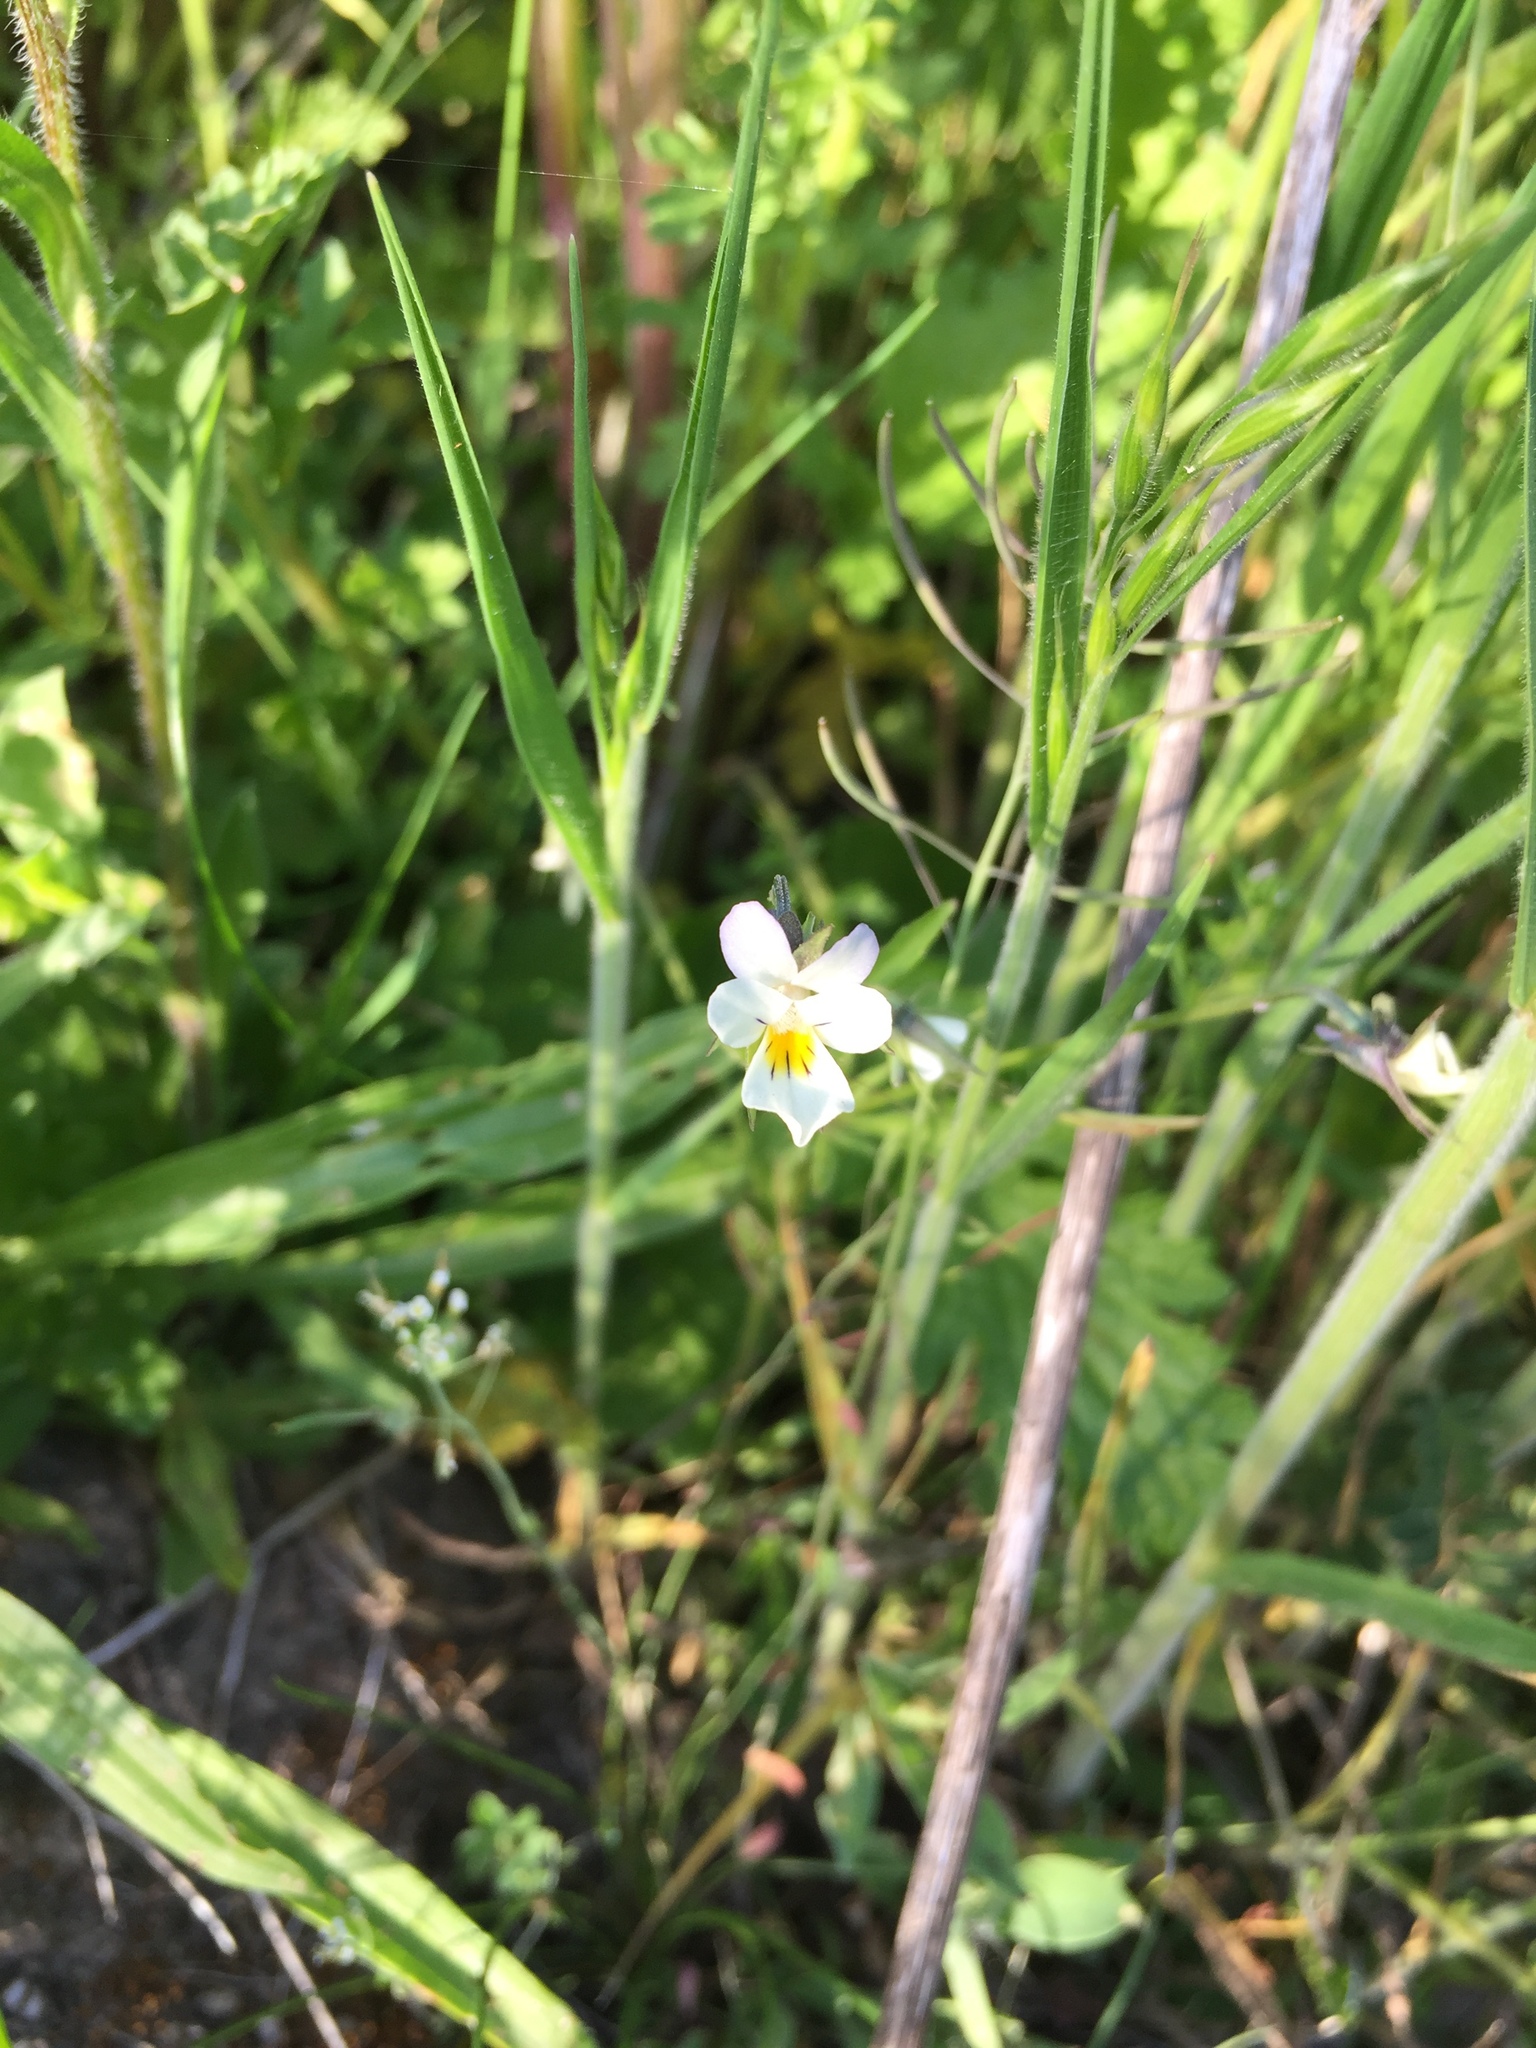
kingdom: Plantae
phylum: Tracheophyta
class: Magnoliopsida
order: Malpighiales
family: Violaceae
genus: Viola
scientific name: Viola arvensis
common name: Field pansy
